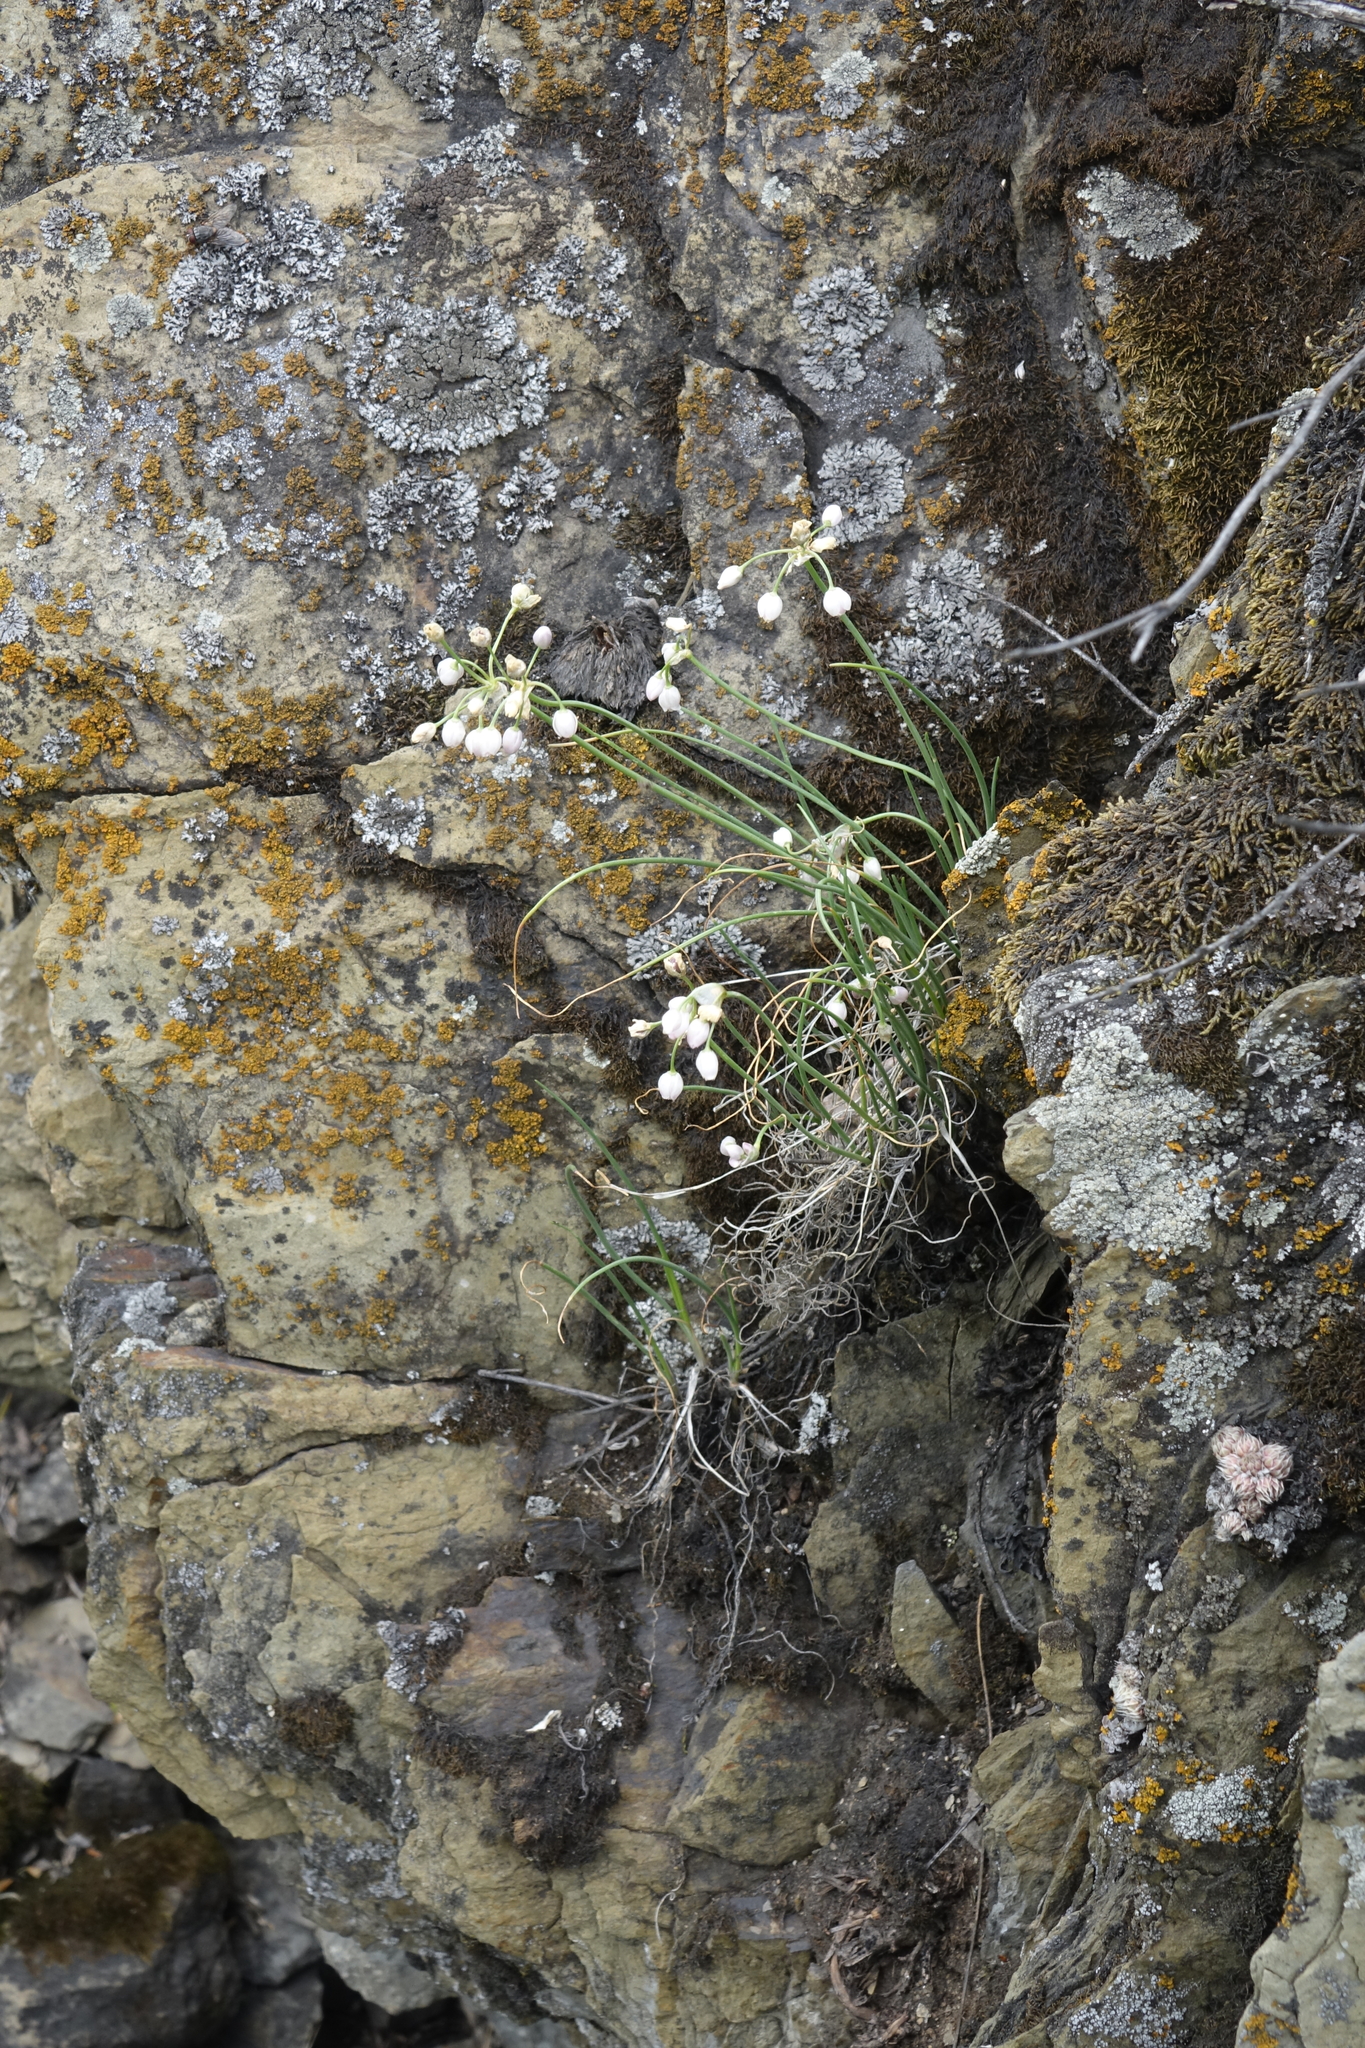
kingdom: Plantae
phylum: Tracheophyta
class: Liliopsida
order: Asparagales
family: Amaryllidaceae
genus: Allium
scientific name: Allium vodopjanovae
